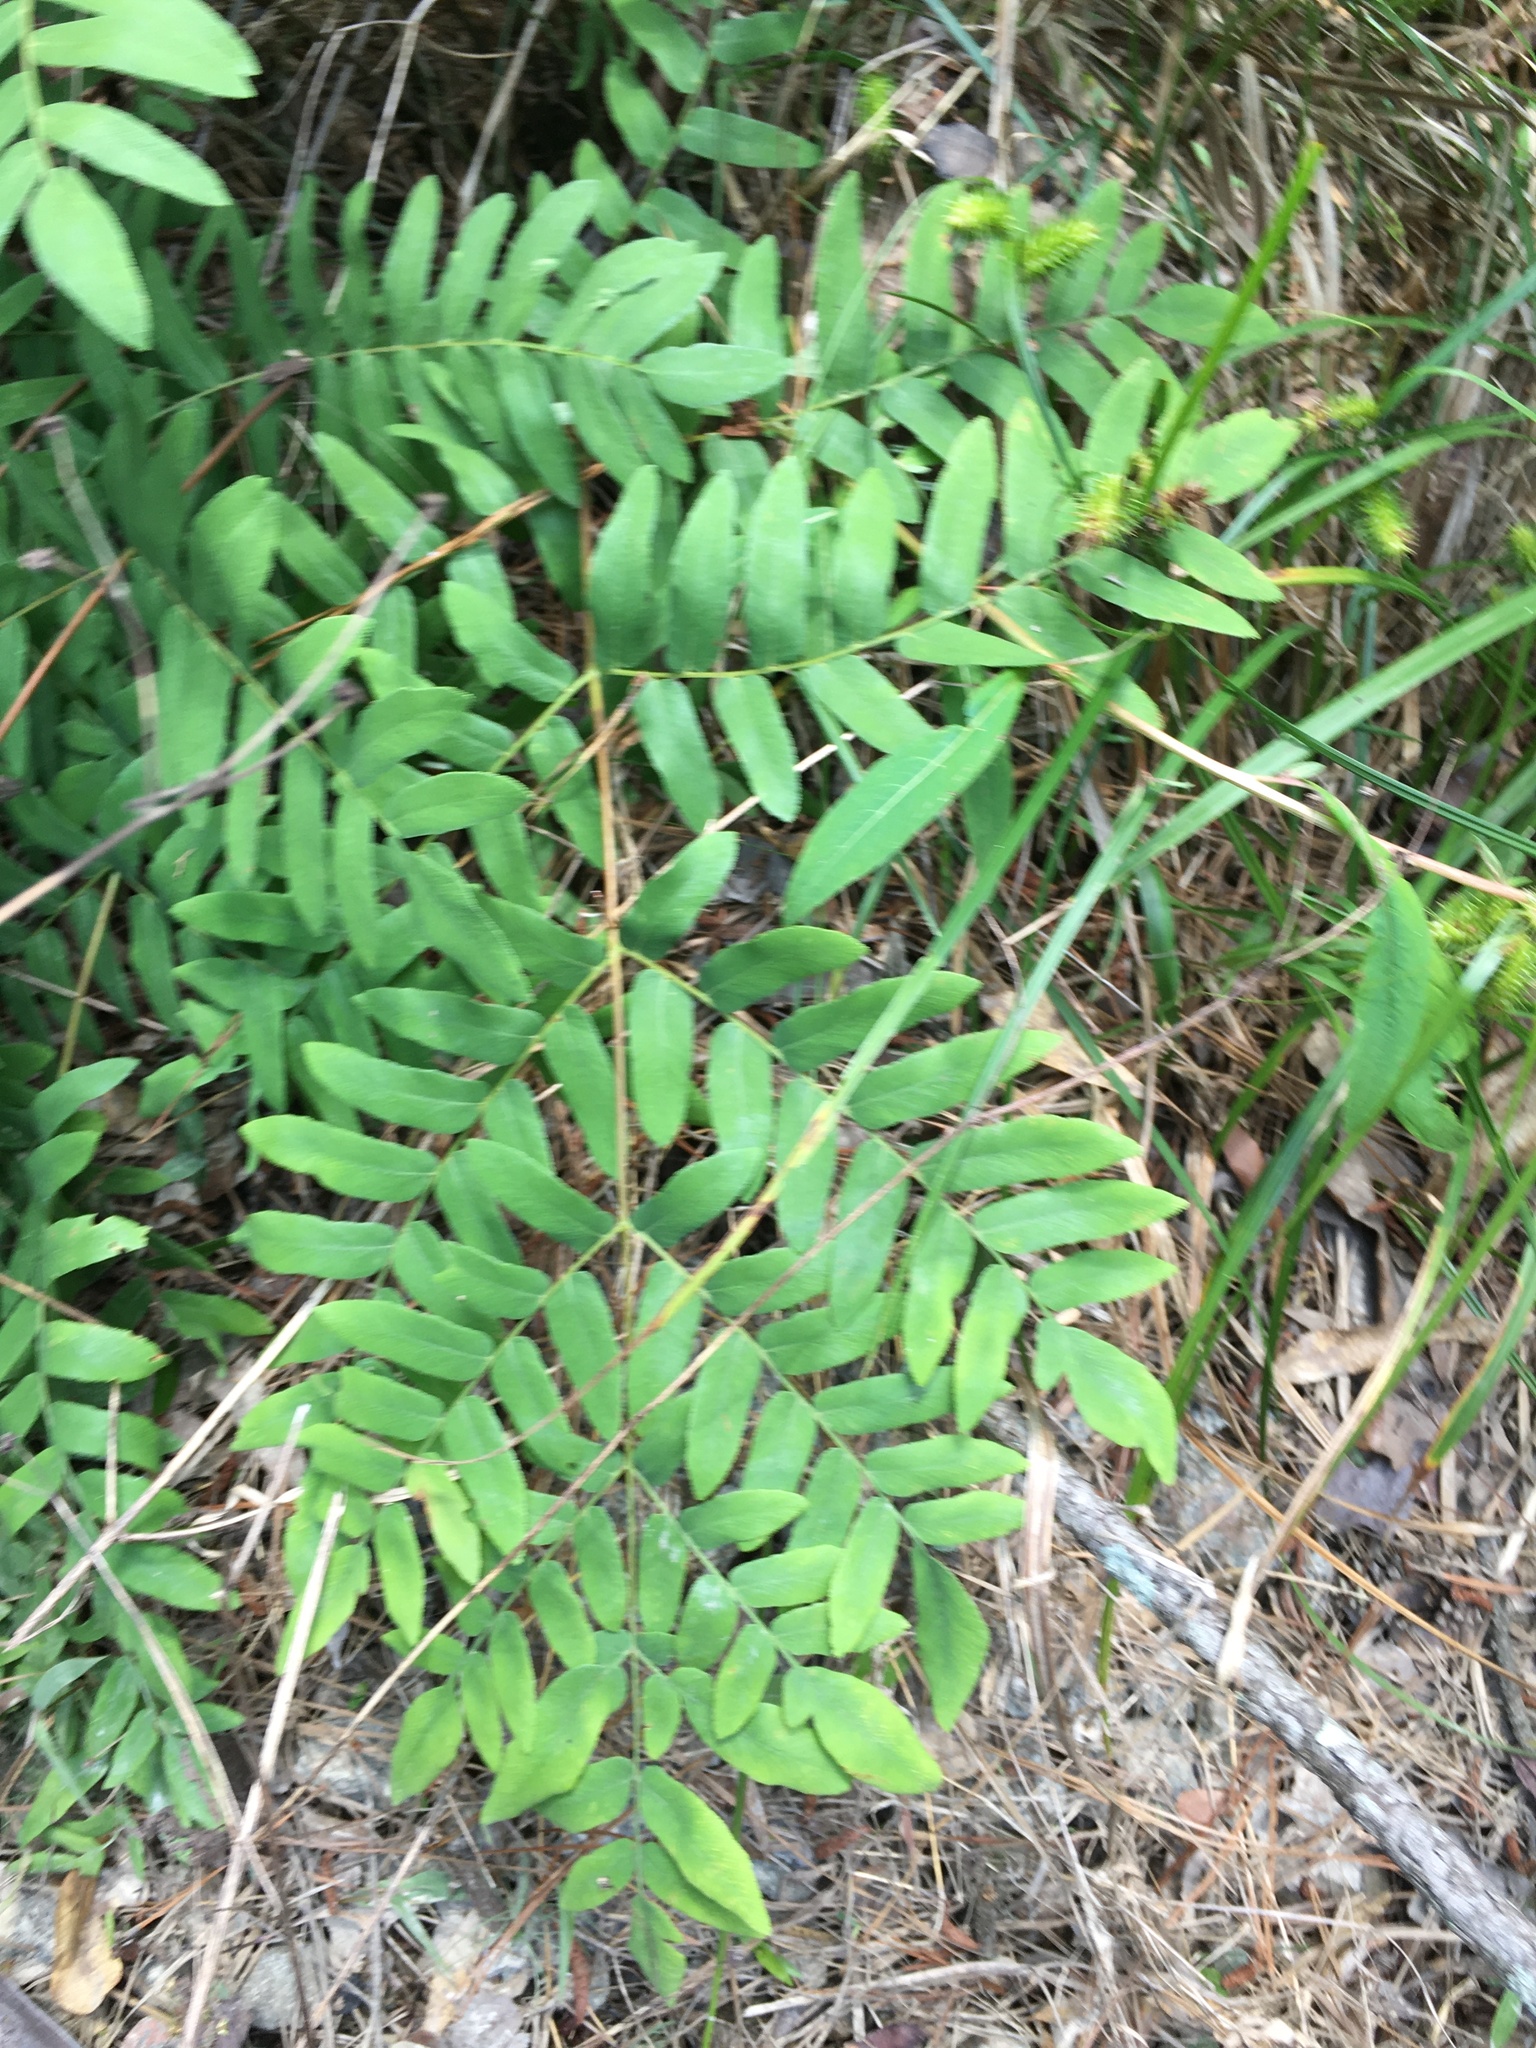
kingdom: Plantae
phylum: Tracheophyta
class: Polypodiopsida
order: Osmundales
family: Osmundaceae
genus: Osmunda
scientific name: Osmunda spectabilis
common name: American royal fern
